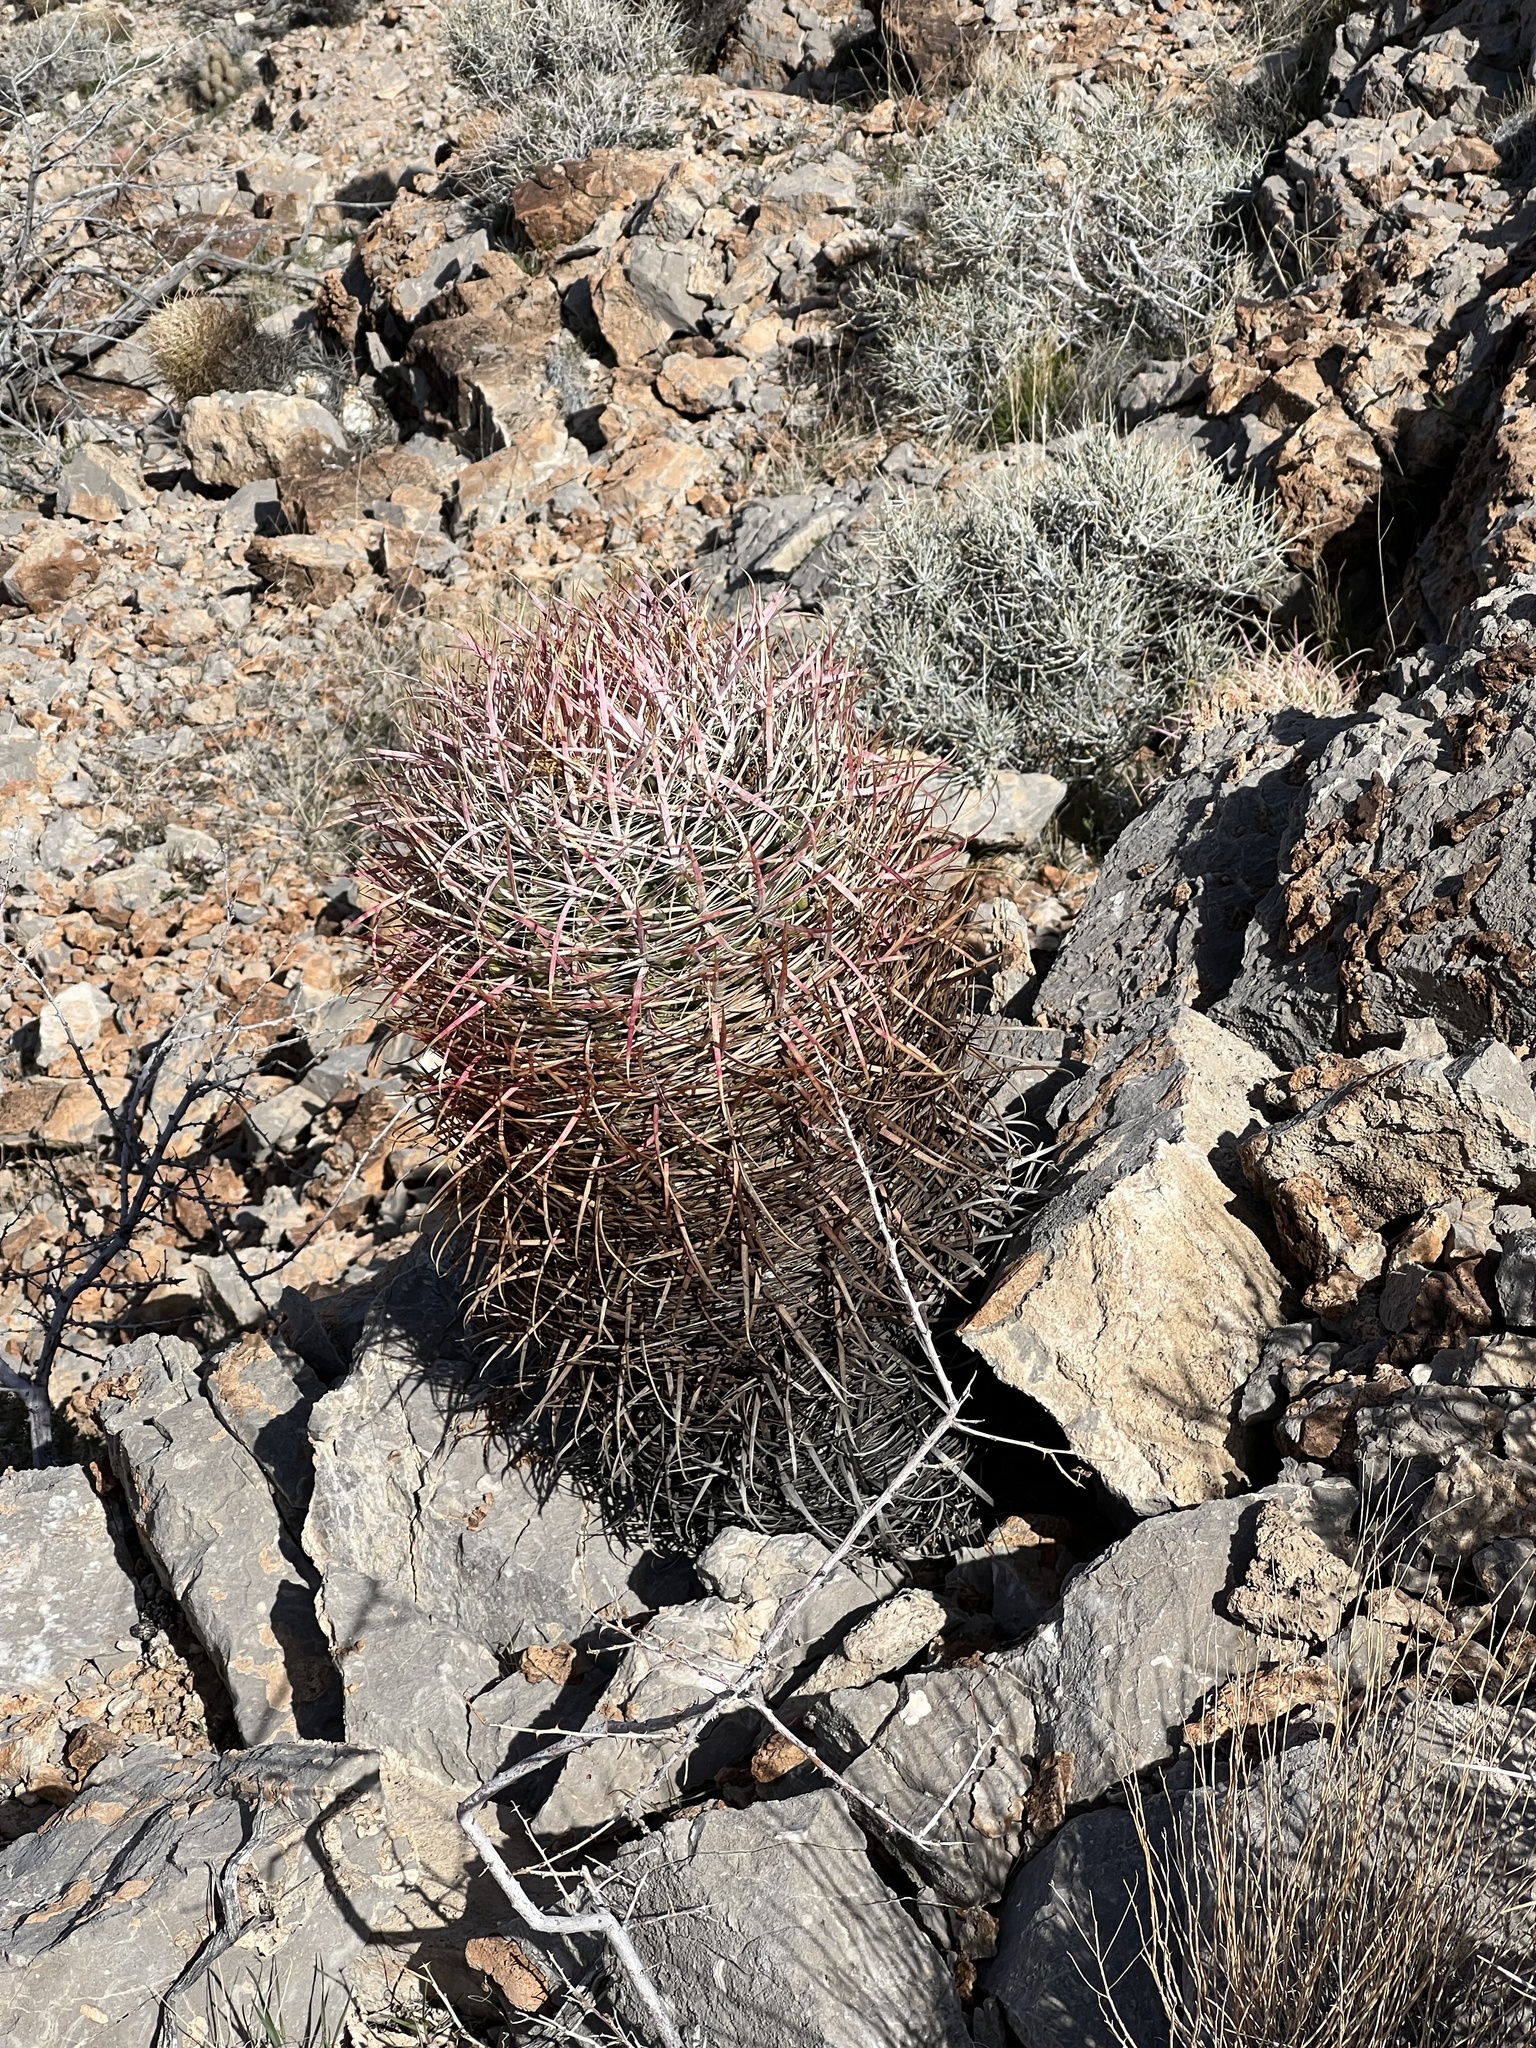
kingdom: Plantae
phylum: Tracheophyta
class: Magnoliopsida
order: Caryophyllales
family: Cactaceae
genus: Ferocactus
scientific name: Ferocactus cylindraceus
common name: California barrel cactus
